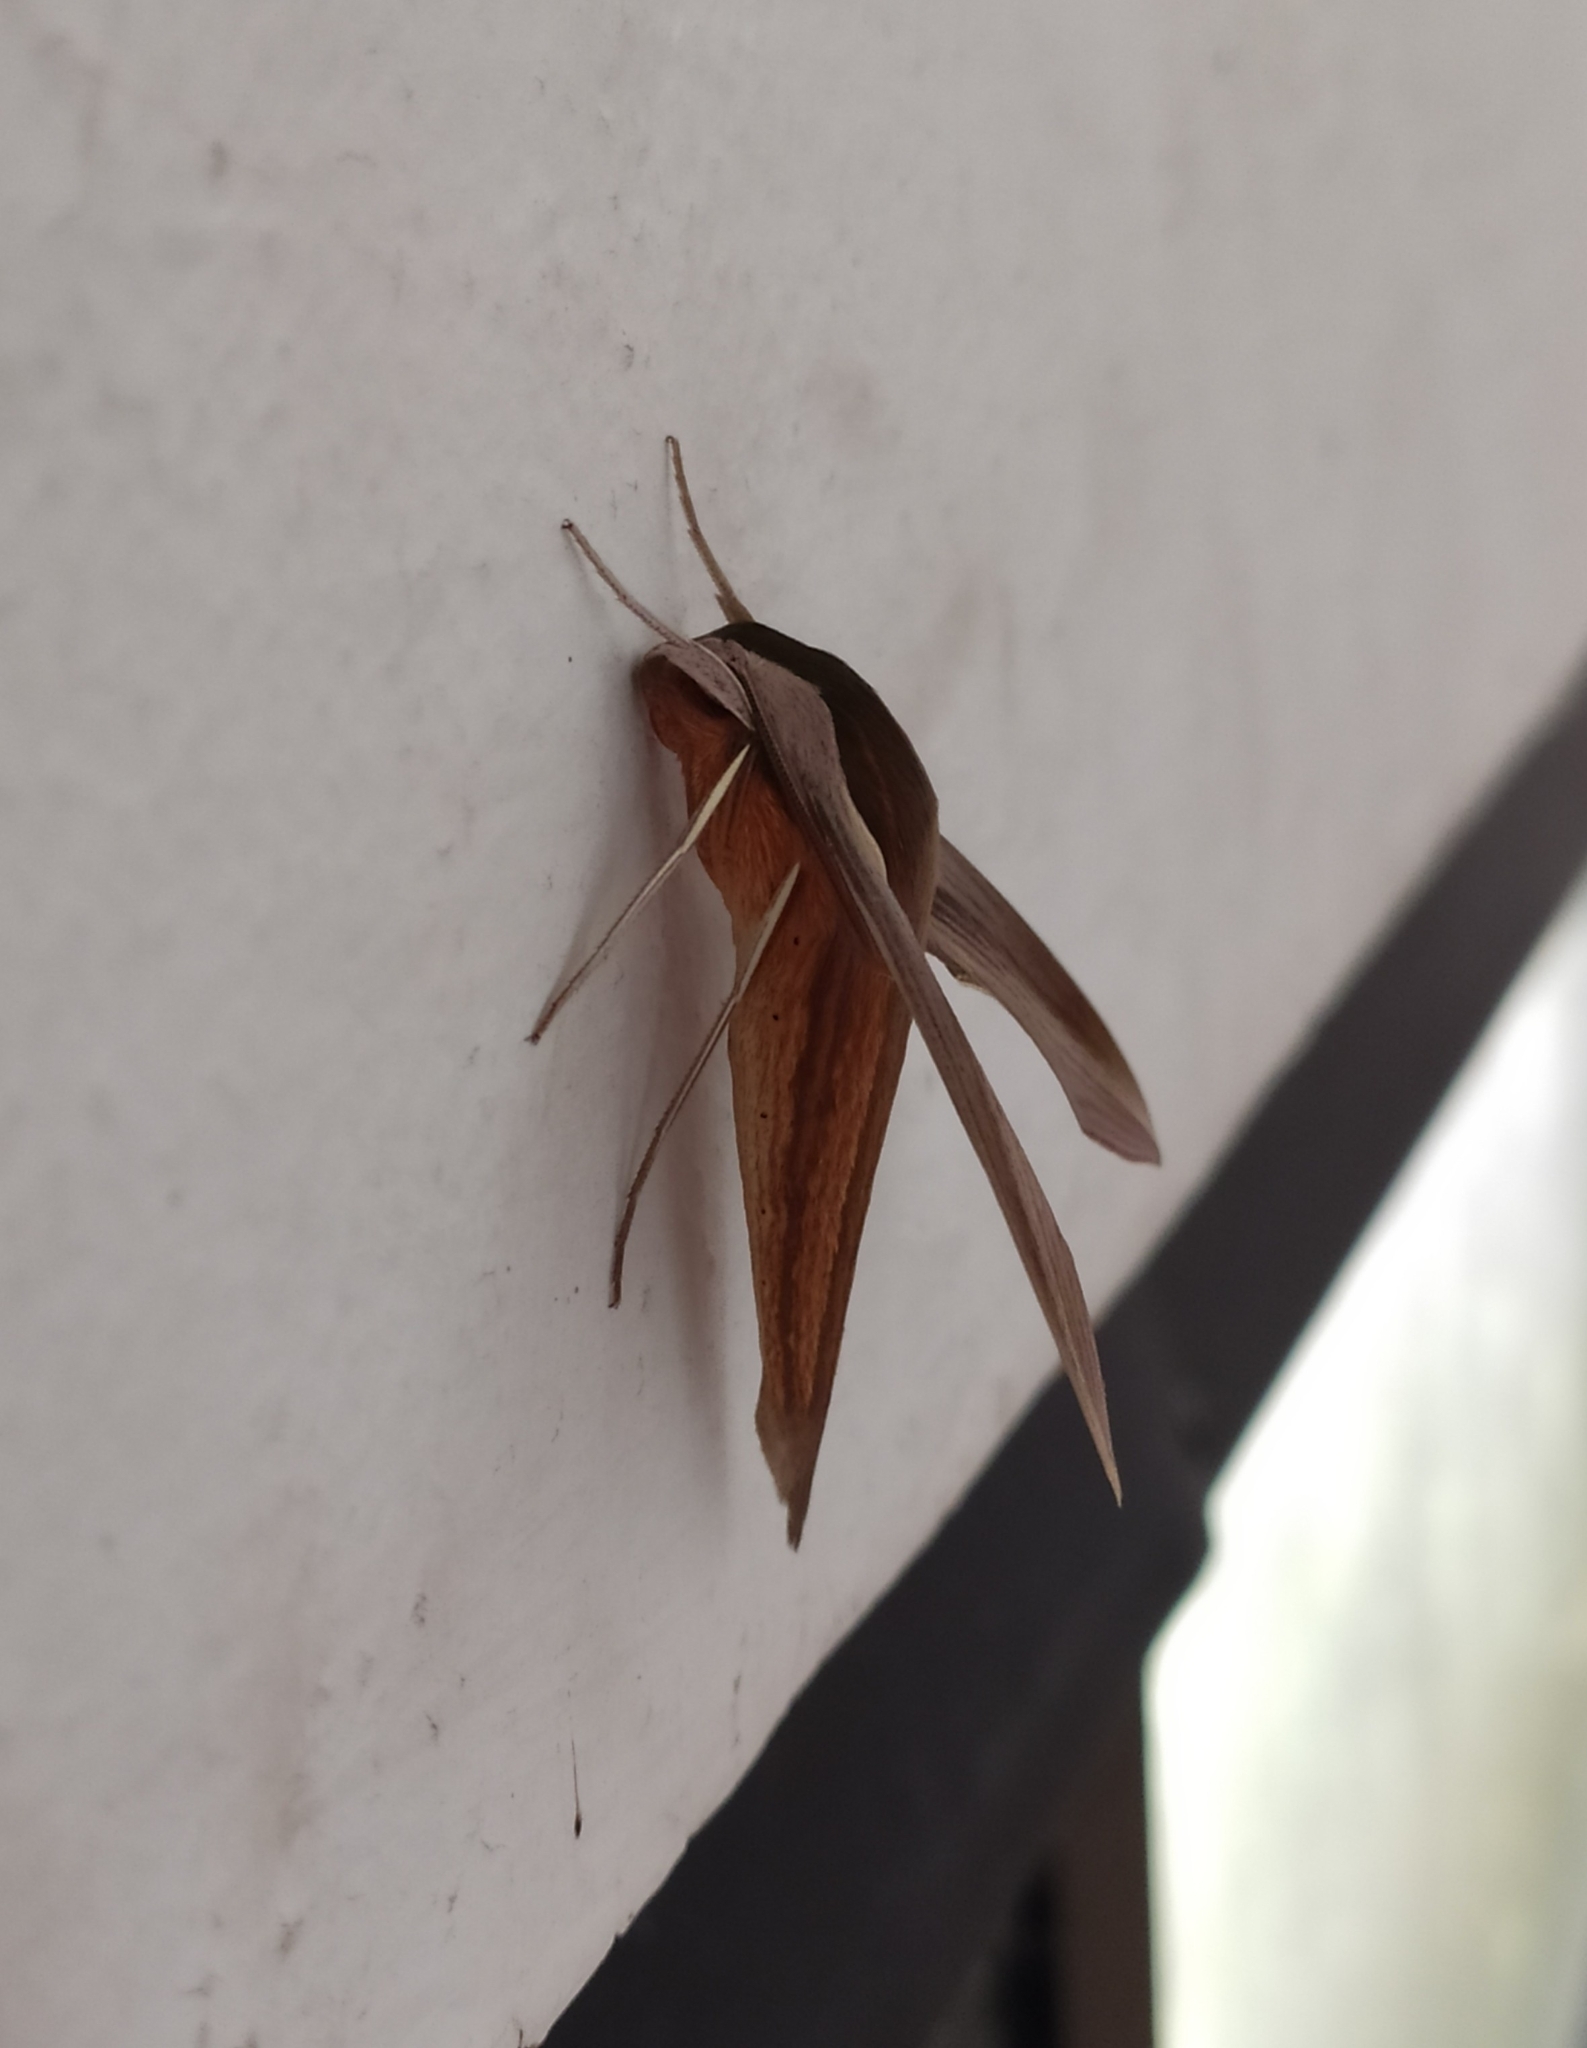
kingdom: Animalia
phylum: Arthropoda
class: Insecta
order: Lepidoptera
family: Sphingidae
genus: Xylophanes
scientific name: Xylophanes tersa
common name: Tersa sphinx
